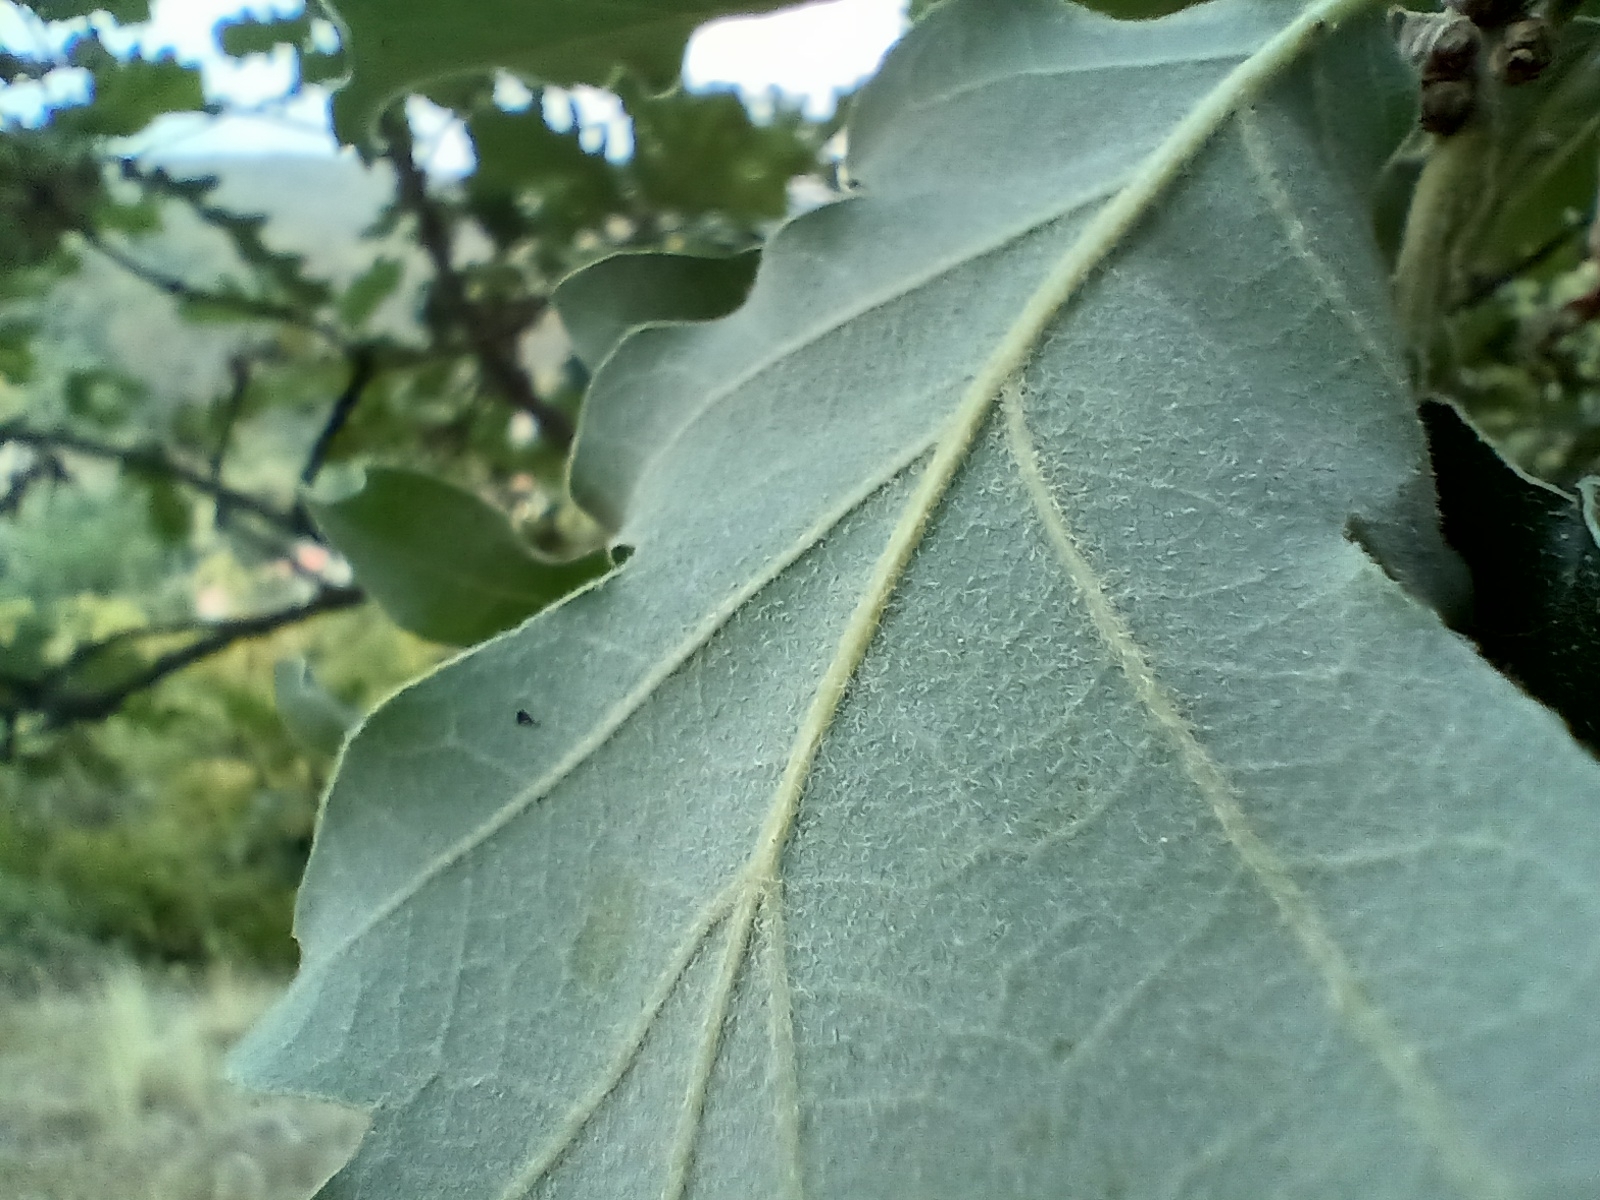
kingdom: Plantae
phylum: Tracheophyta
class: Magnoliopsida
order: Fagales
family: Fagaceae
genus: Quercus
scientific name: Quercus pubescens
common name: Downy oak
